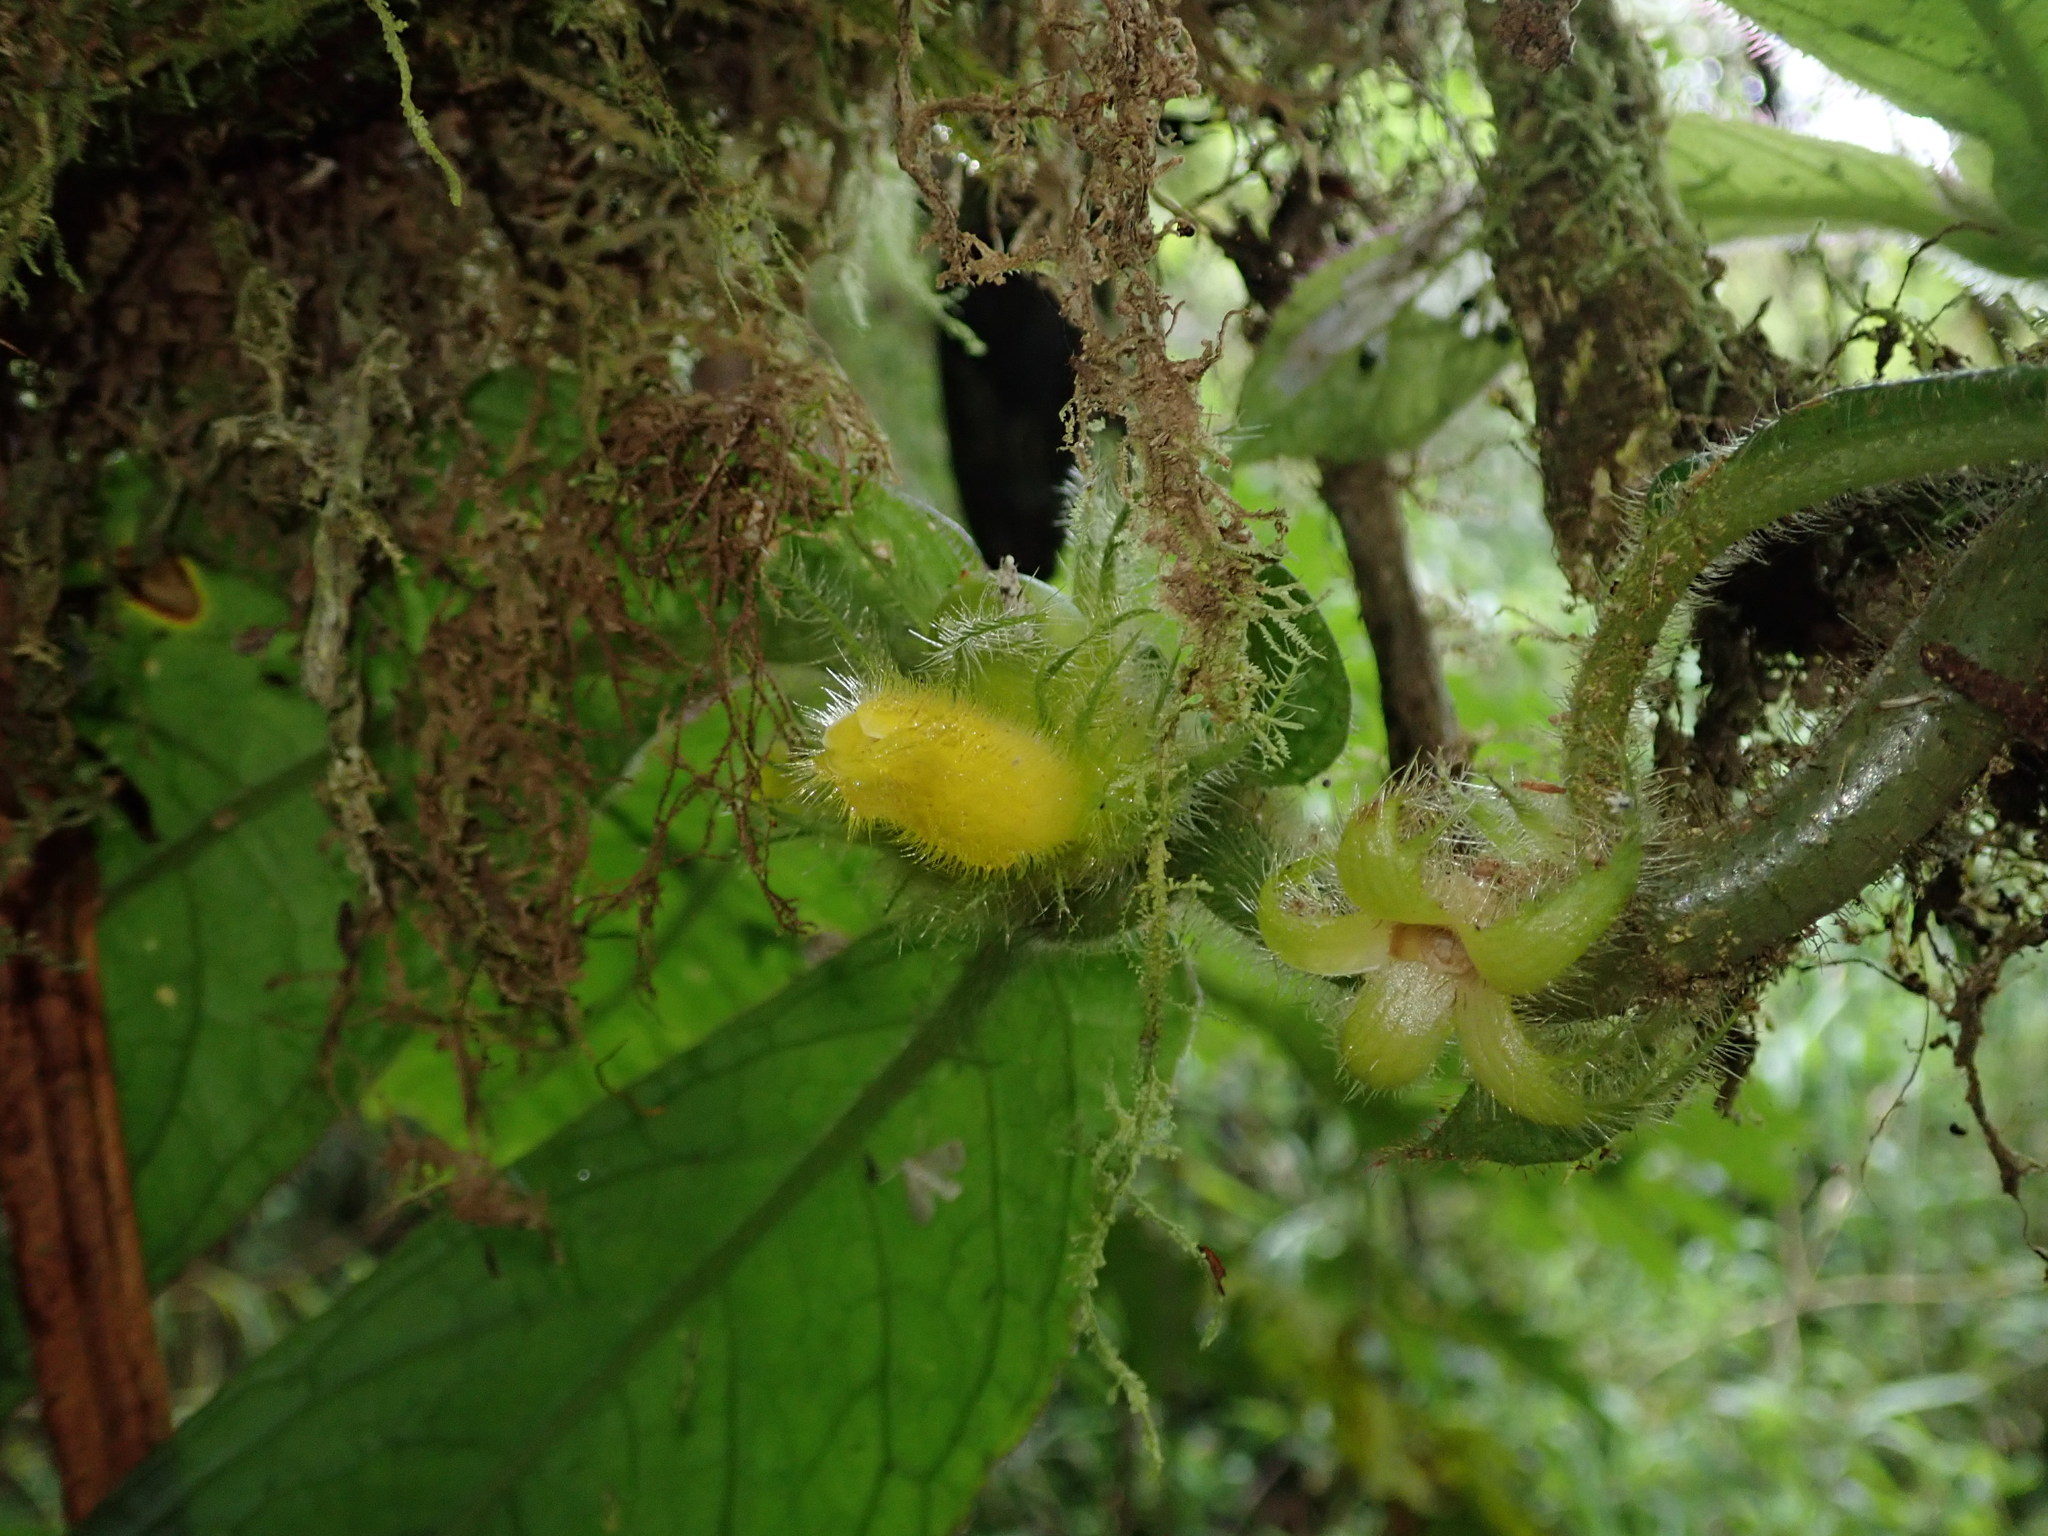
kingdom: Plantae
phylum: Tracheophyta
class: Magnoliopsida
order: Lamiales
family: Gesneriaceae
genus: Columnea
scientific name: Columnea fuscihirta
